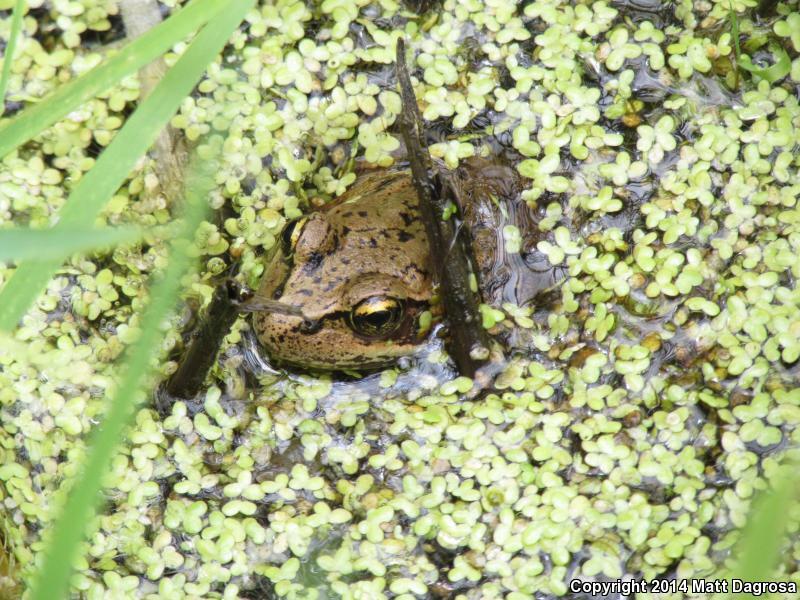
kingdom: Animalia
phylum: Chordata
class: Amphibia
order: Anura
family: Ranidae
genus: Rana
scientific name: Rana aurora
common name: Red-legged frog
